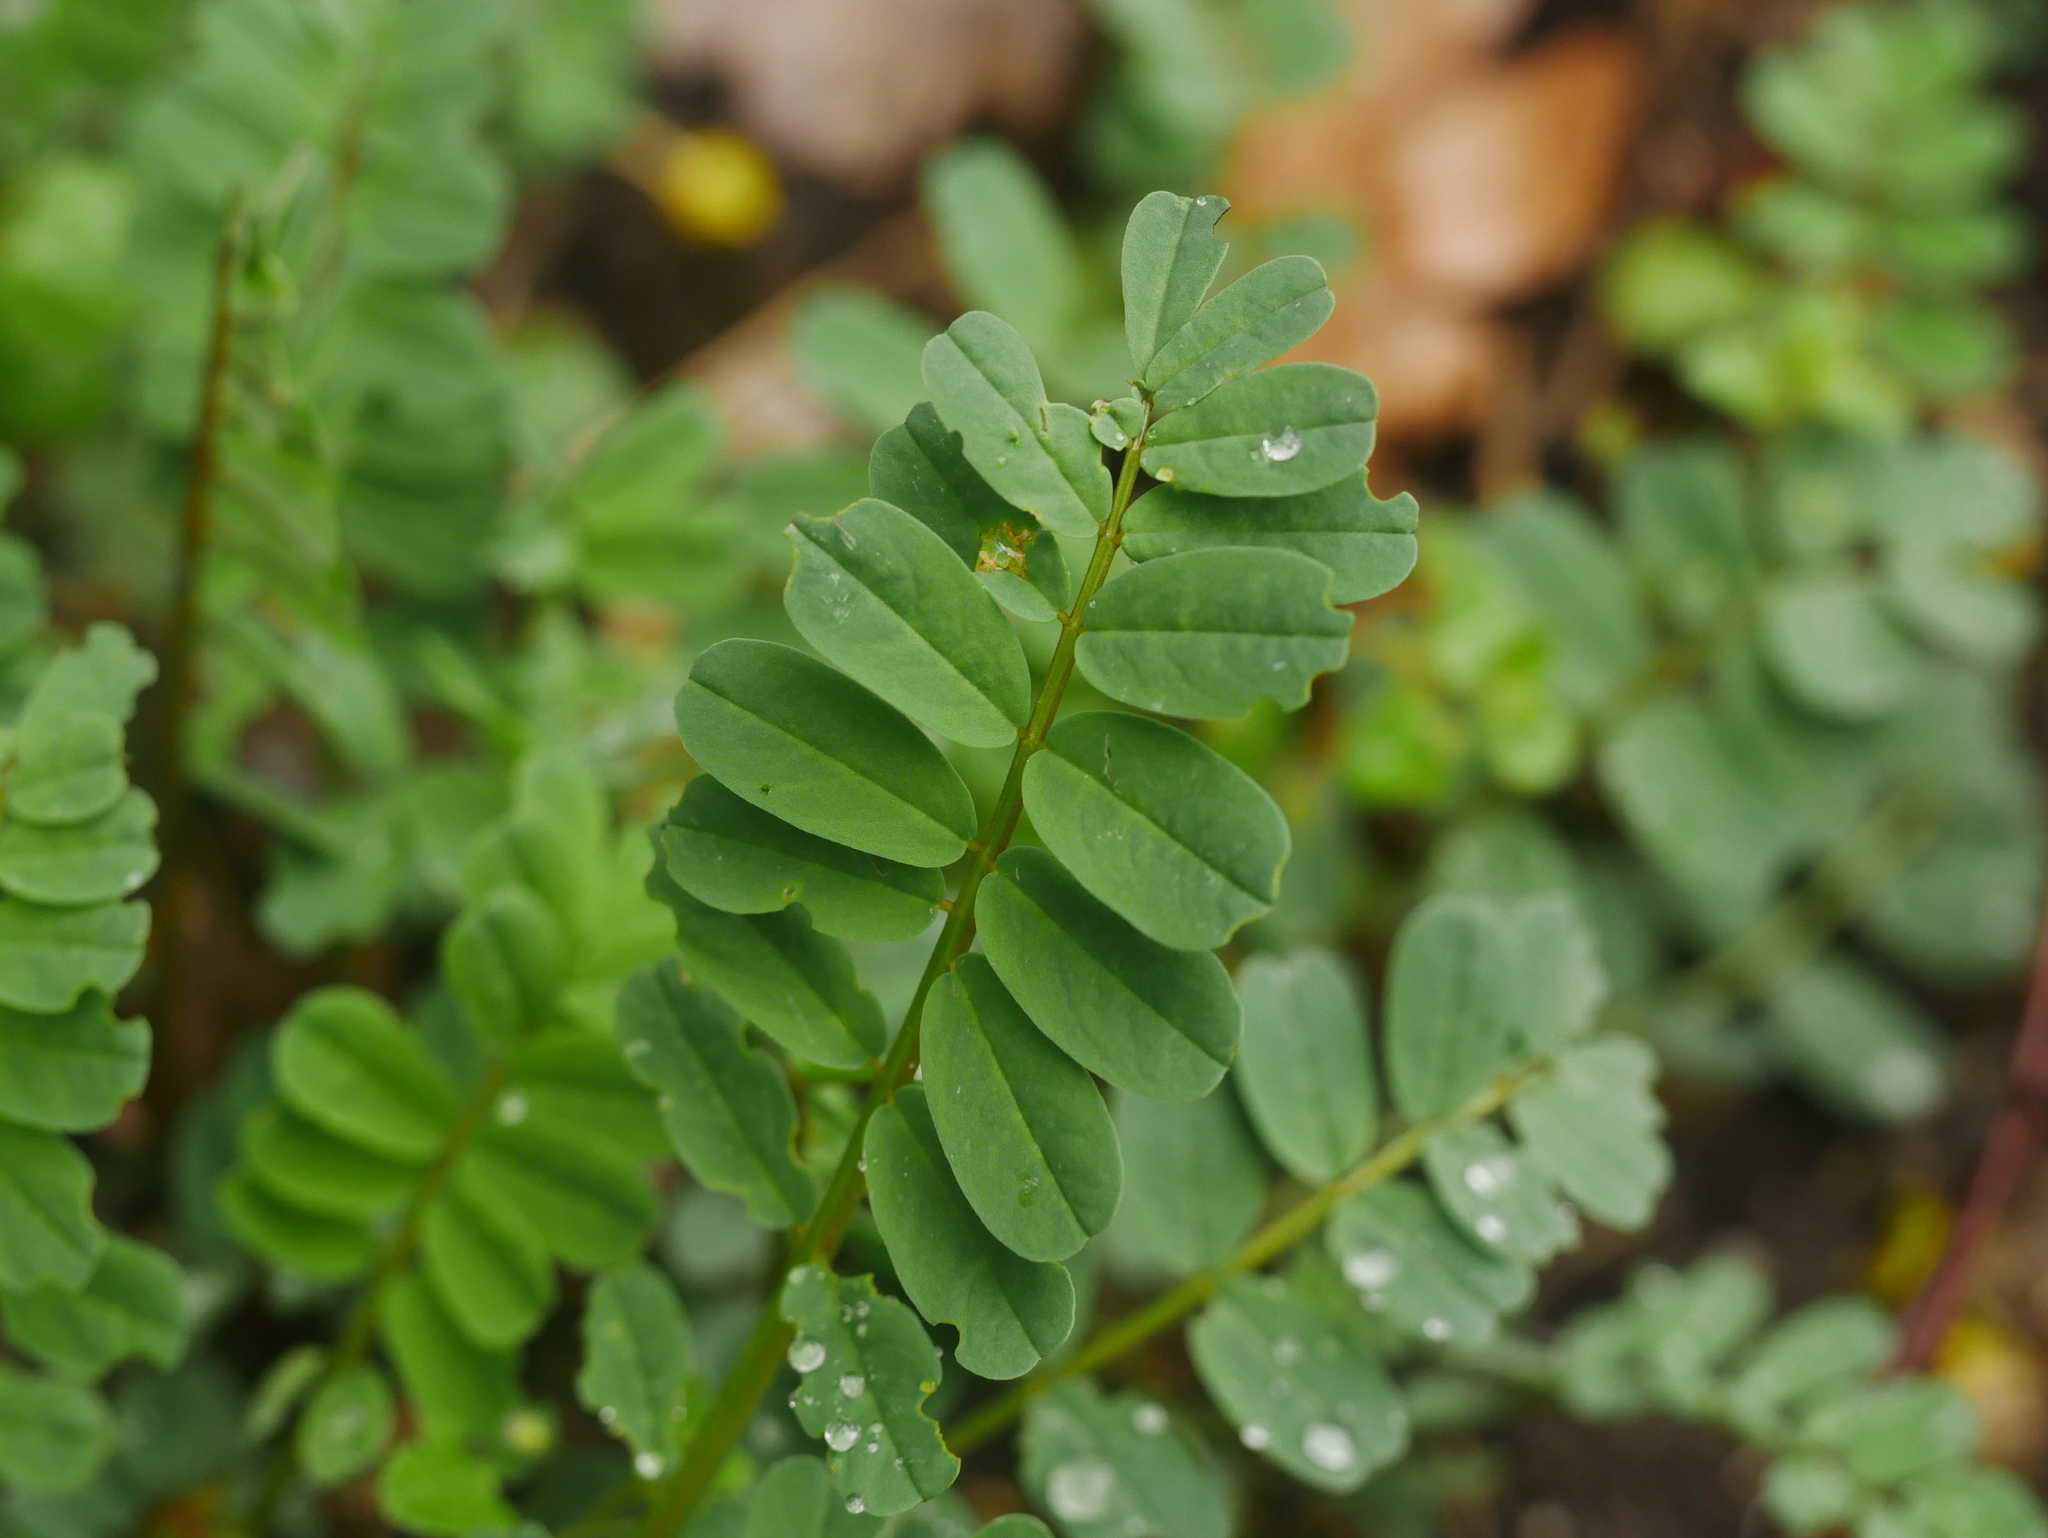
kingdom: Plantae
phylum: Tracheophyta
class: Magnoliopsida
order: Fabales
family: Fabaceae
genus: Coronilla
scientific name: Coronilla varia
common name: Crownvetch
